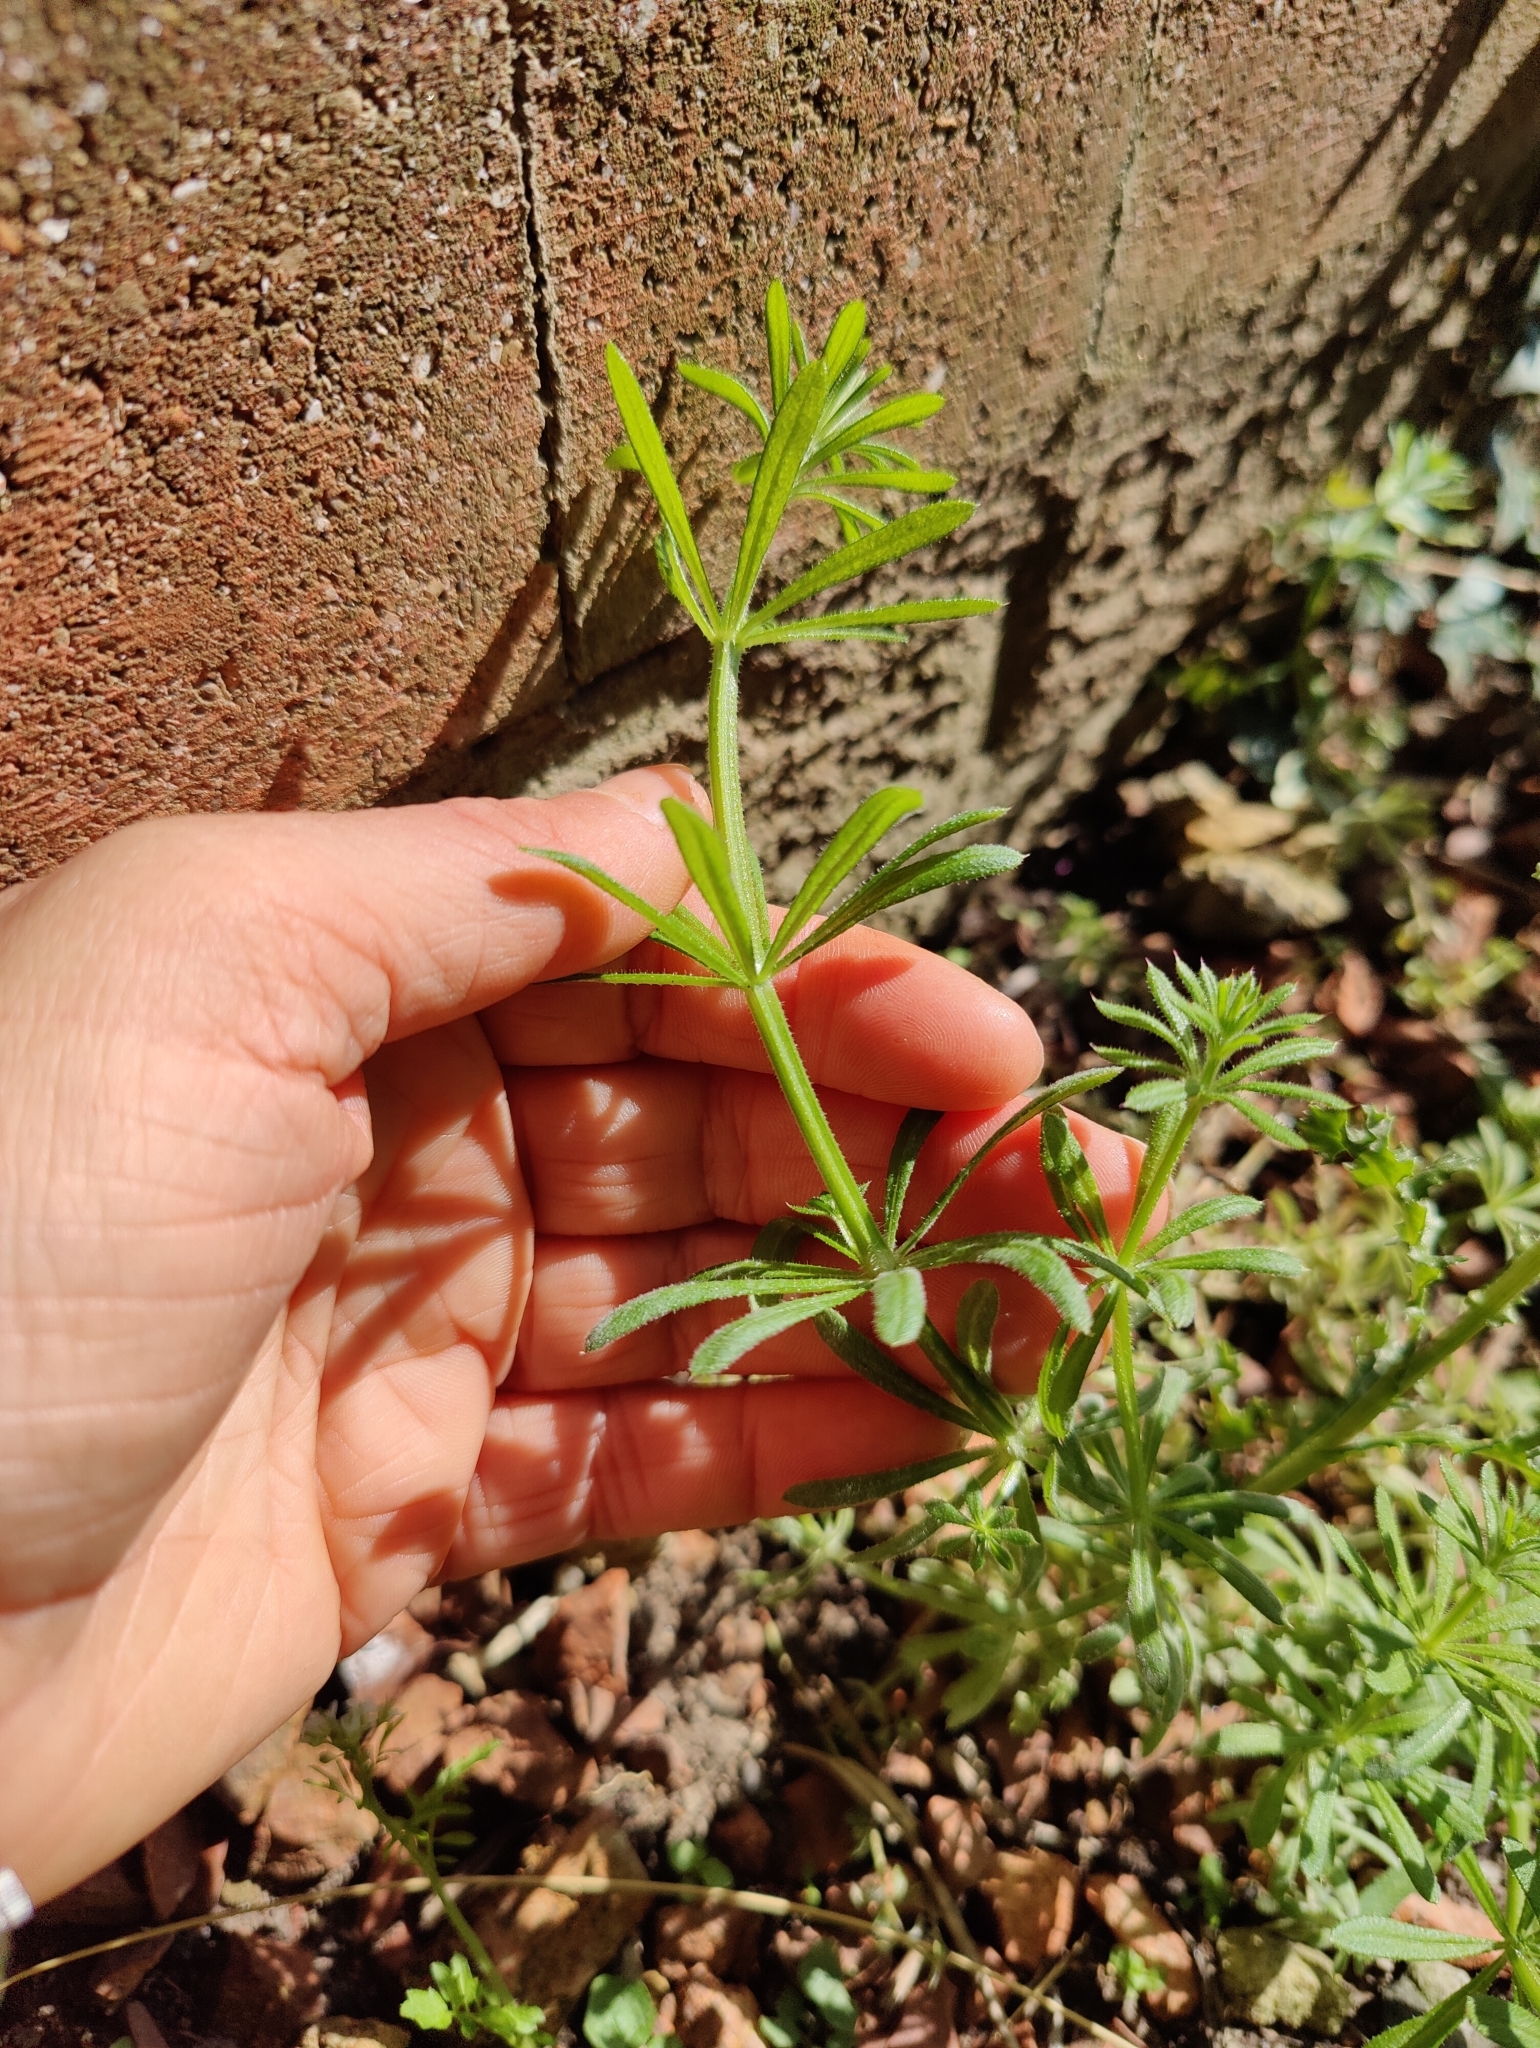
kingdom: Plantae
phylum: Tracheophyta
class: Magnoliopsida
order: Gentianales
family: Rubiaceae
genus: Galium
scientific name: Galium aparine
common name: Cleavers
